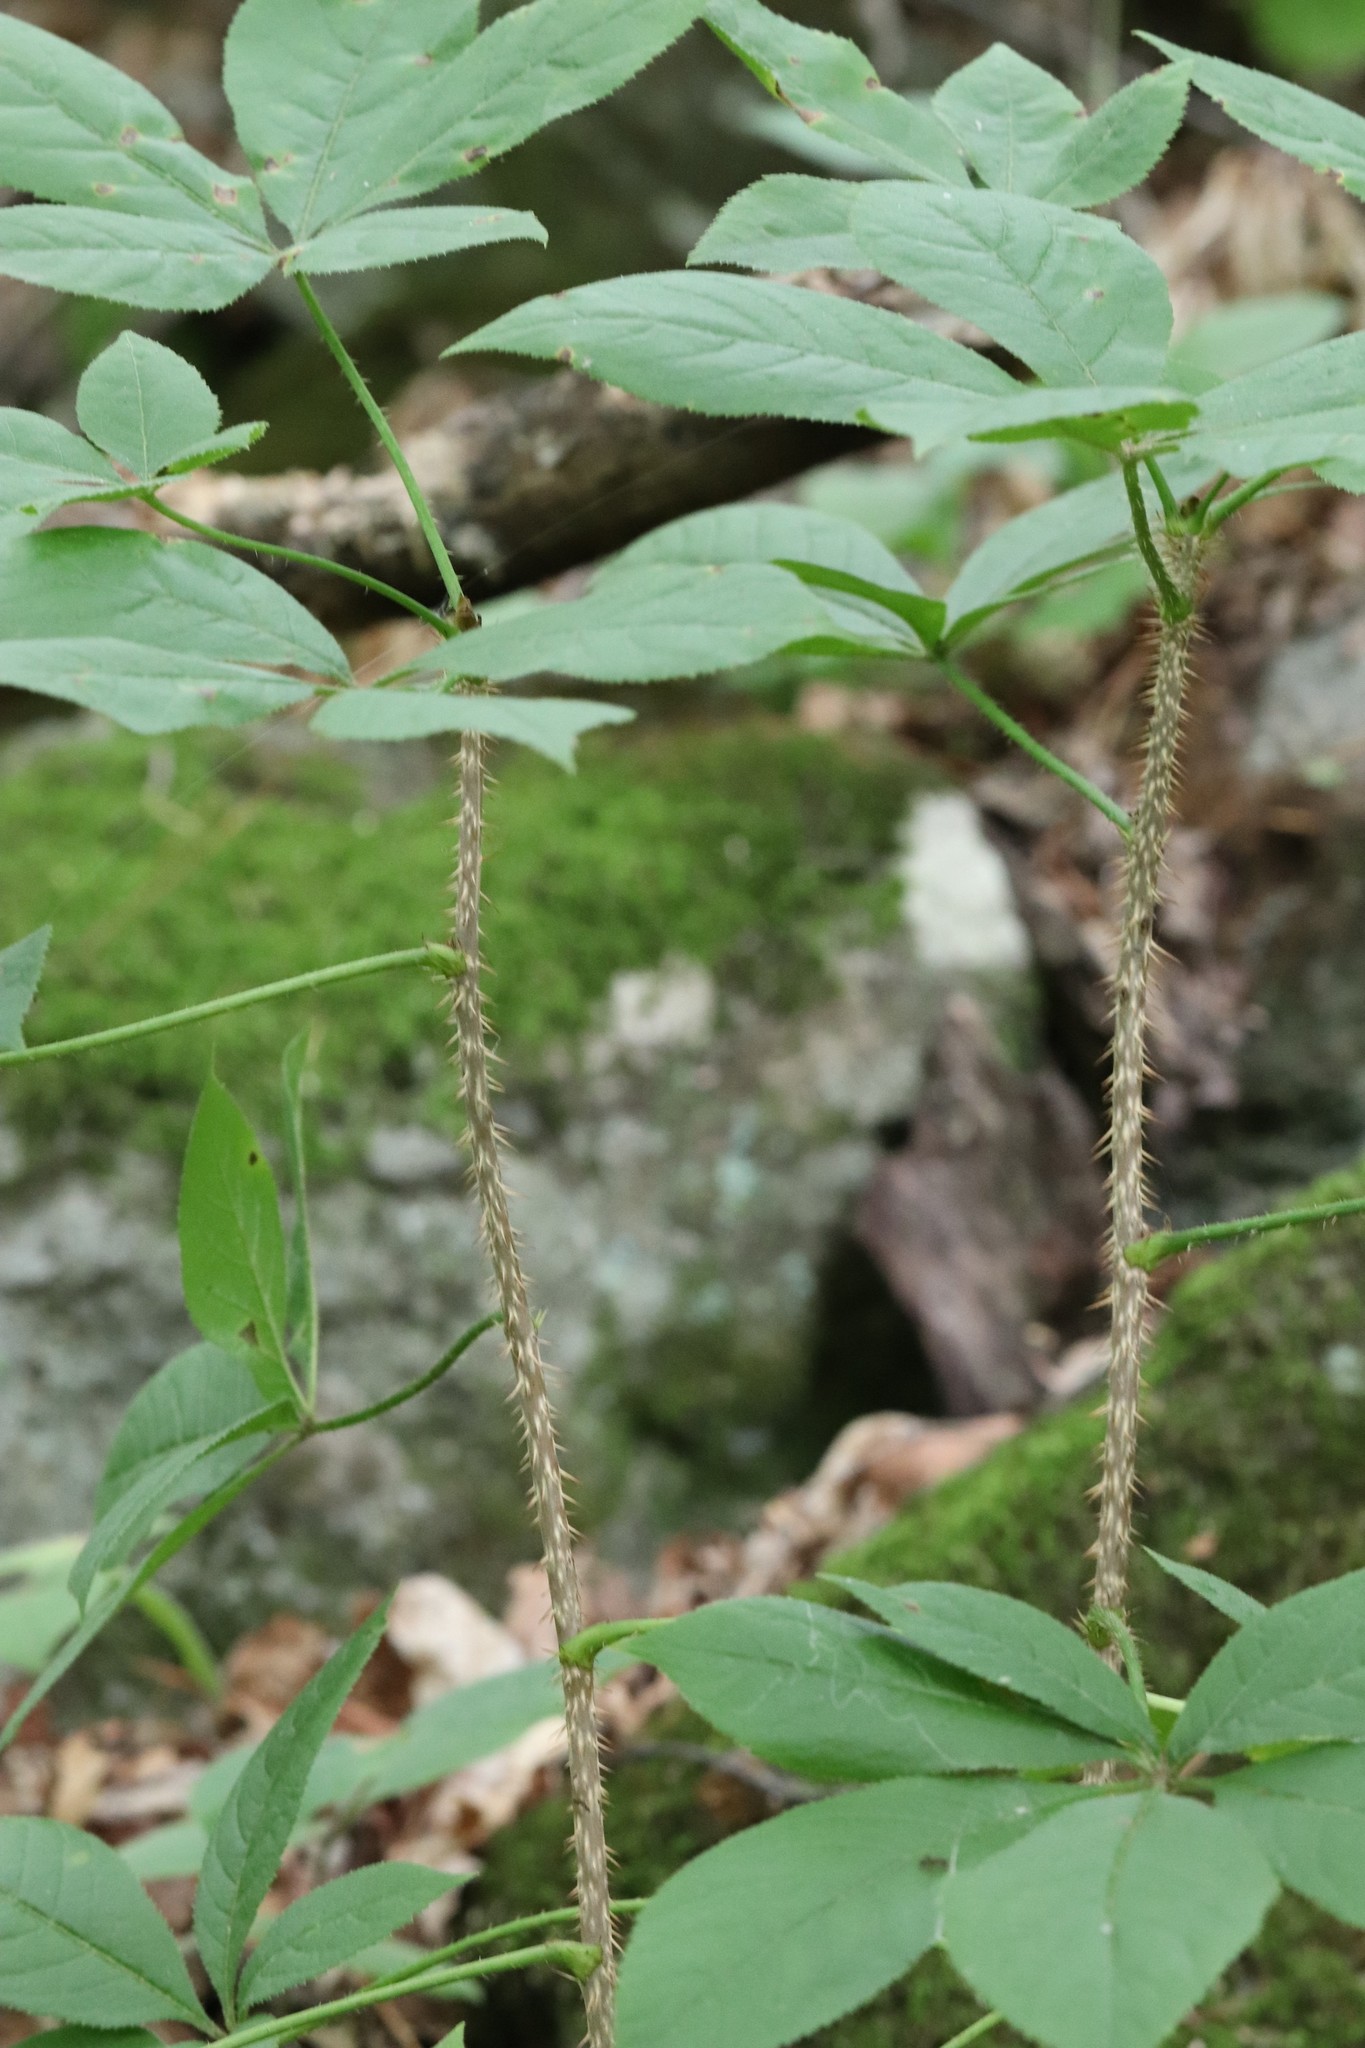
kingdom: Plantae
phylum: Tracheophyta
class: Magnoliopsida
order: Apiales
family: Araliaceae
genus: Eleutherococcus
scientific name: Eleutherococcus senticosus
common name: Siberian-ginseng
